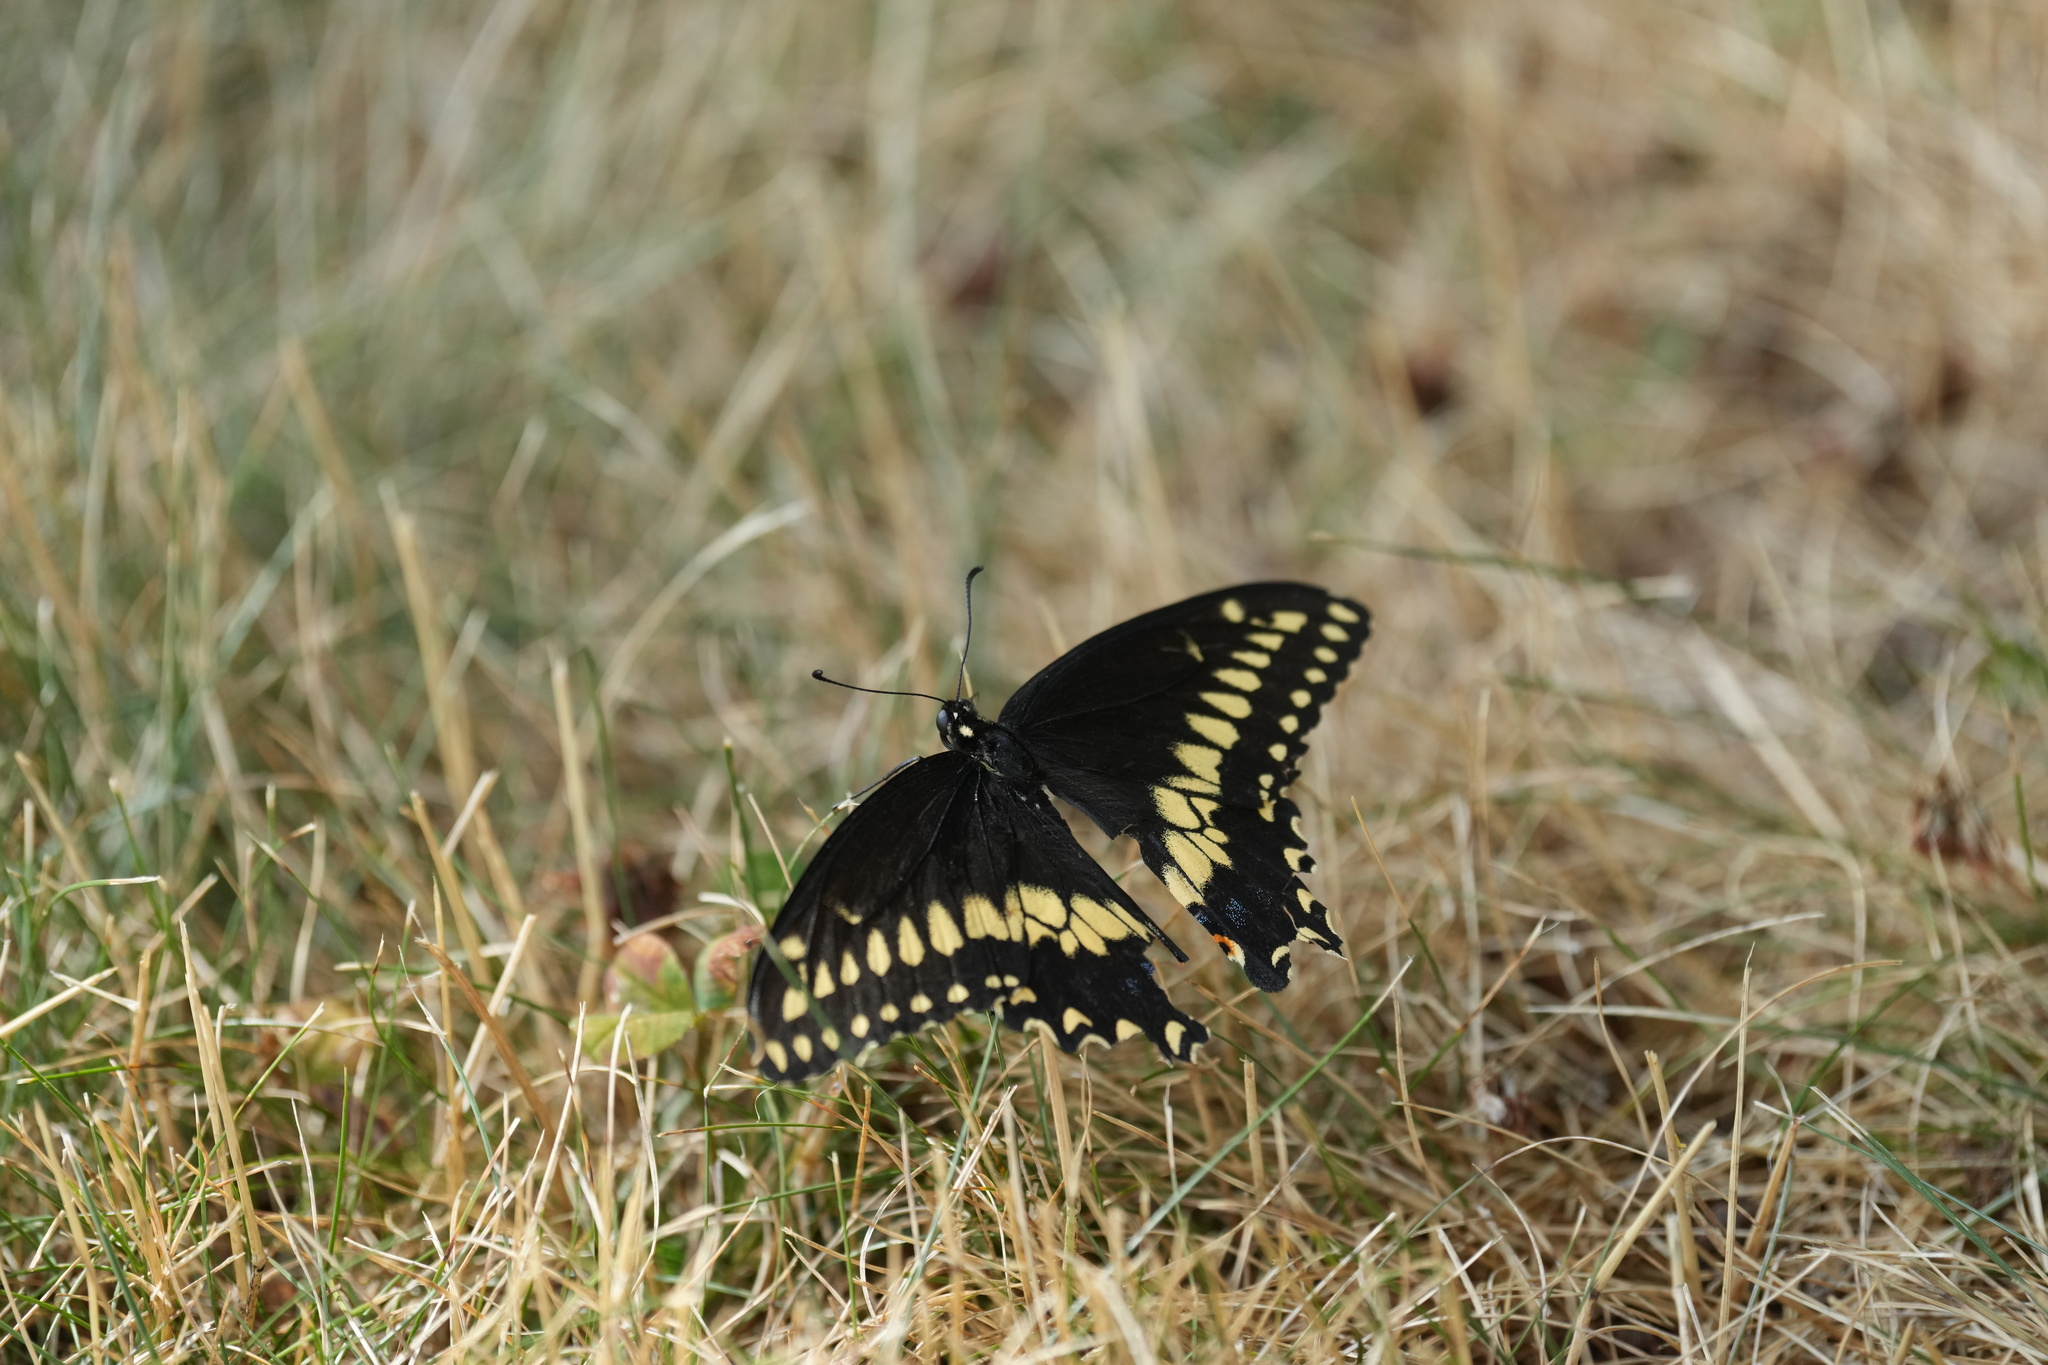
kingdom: Animalia
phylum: Arthropoda
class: Insecta
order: Lepidoptera
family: Papilionidae
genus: Papilio
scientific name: Papilio polyxenes
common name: Black swallowtail
